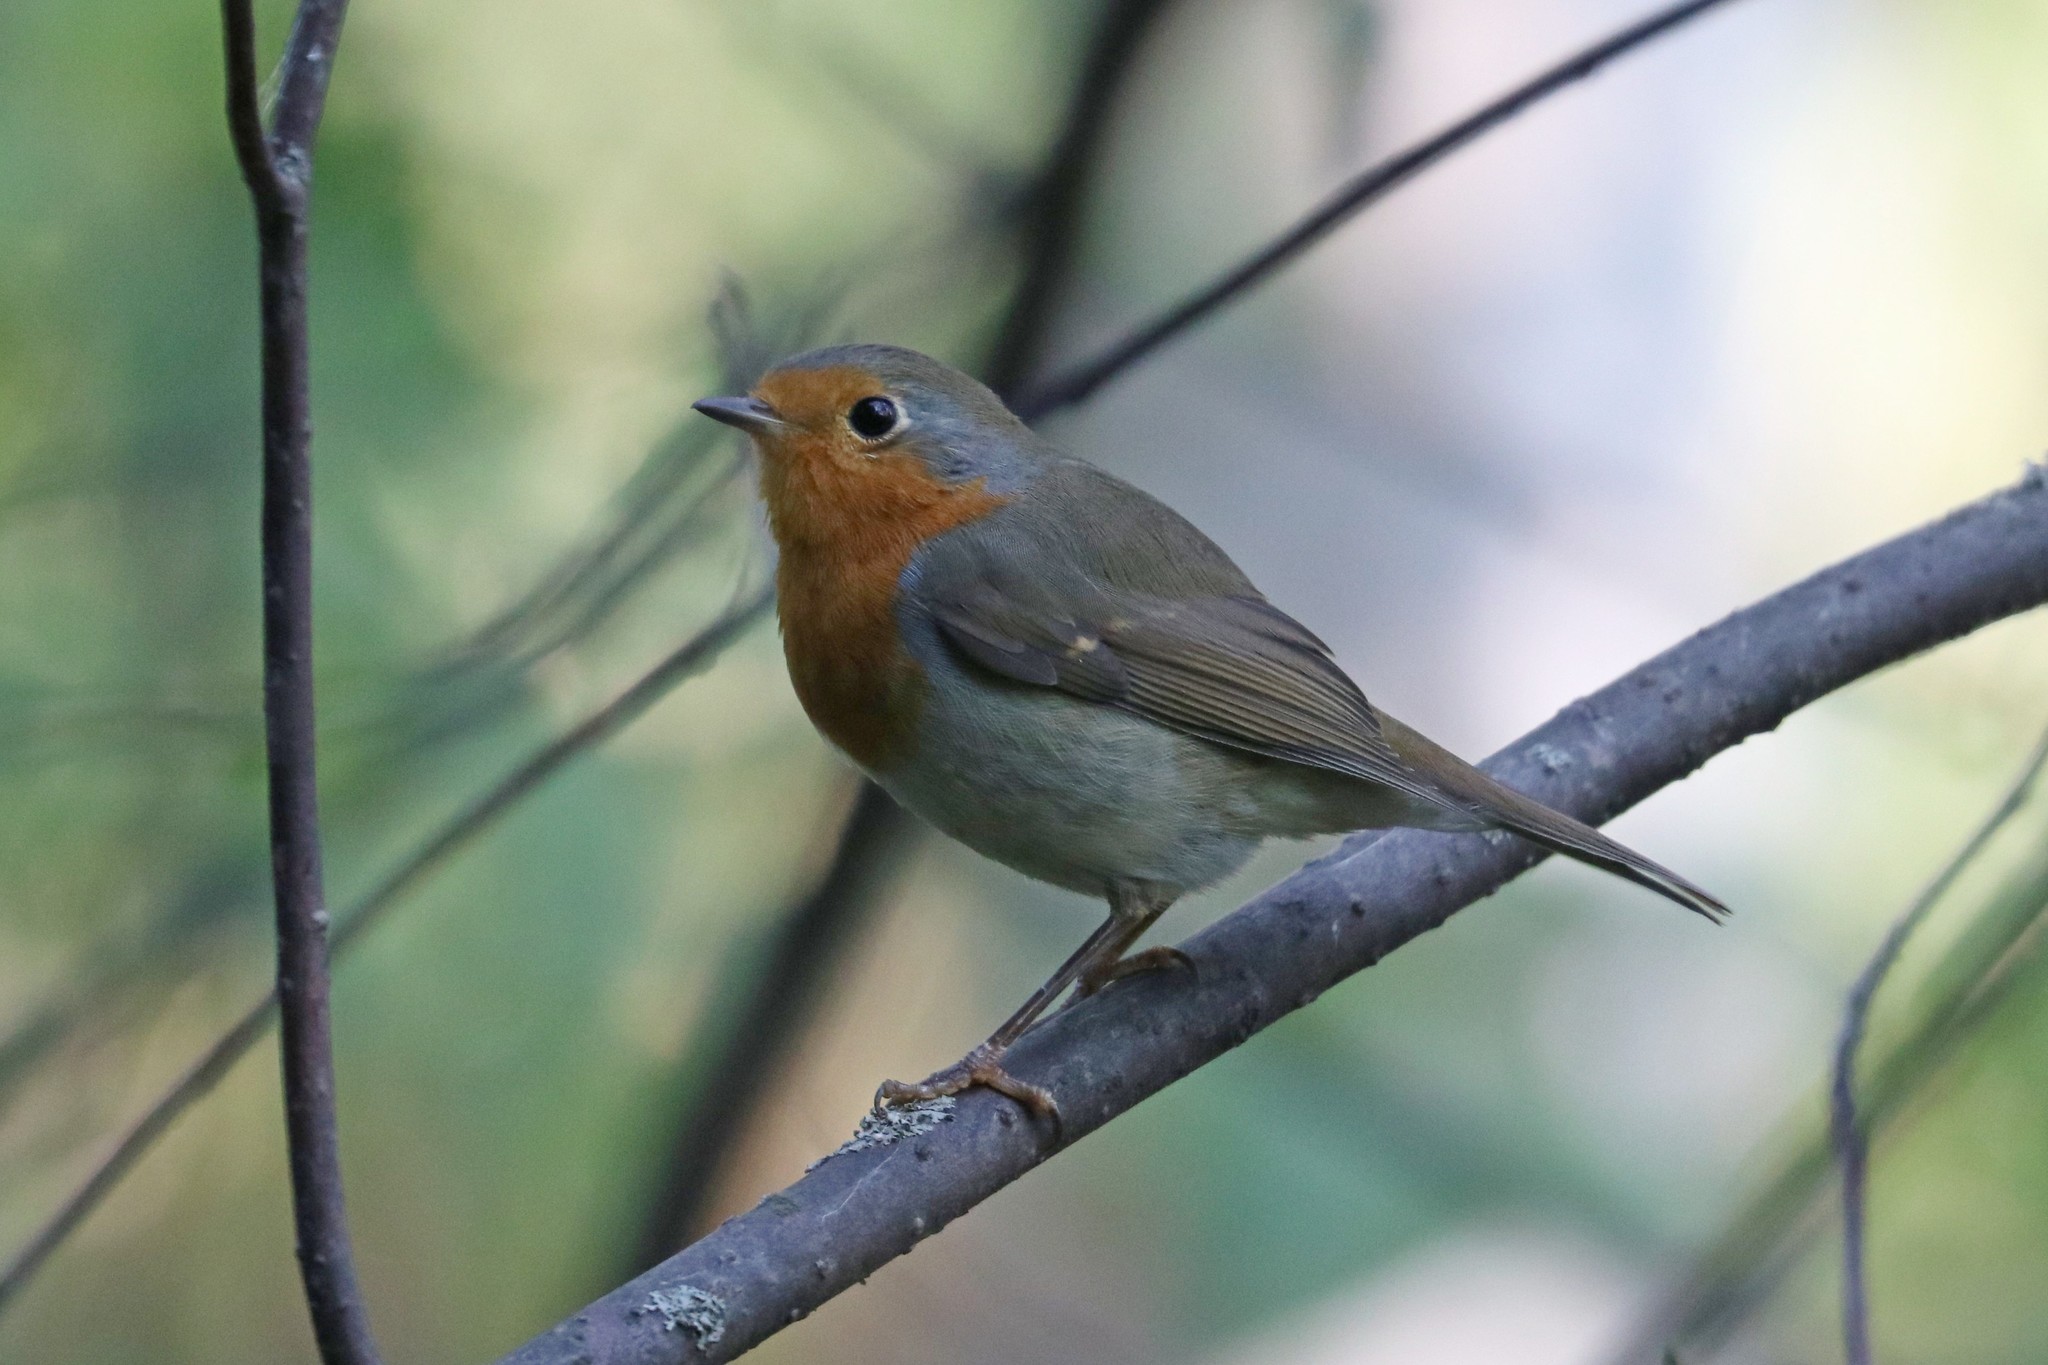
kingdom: Animalia
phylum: Chordata
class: Aves
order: Passeriformes
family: Muscicapidae
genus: Erithacus
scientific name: Erithacus rubecula
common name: European robin
